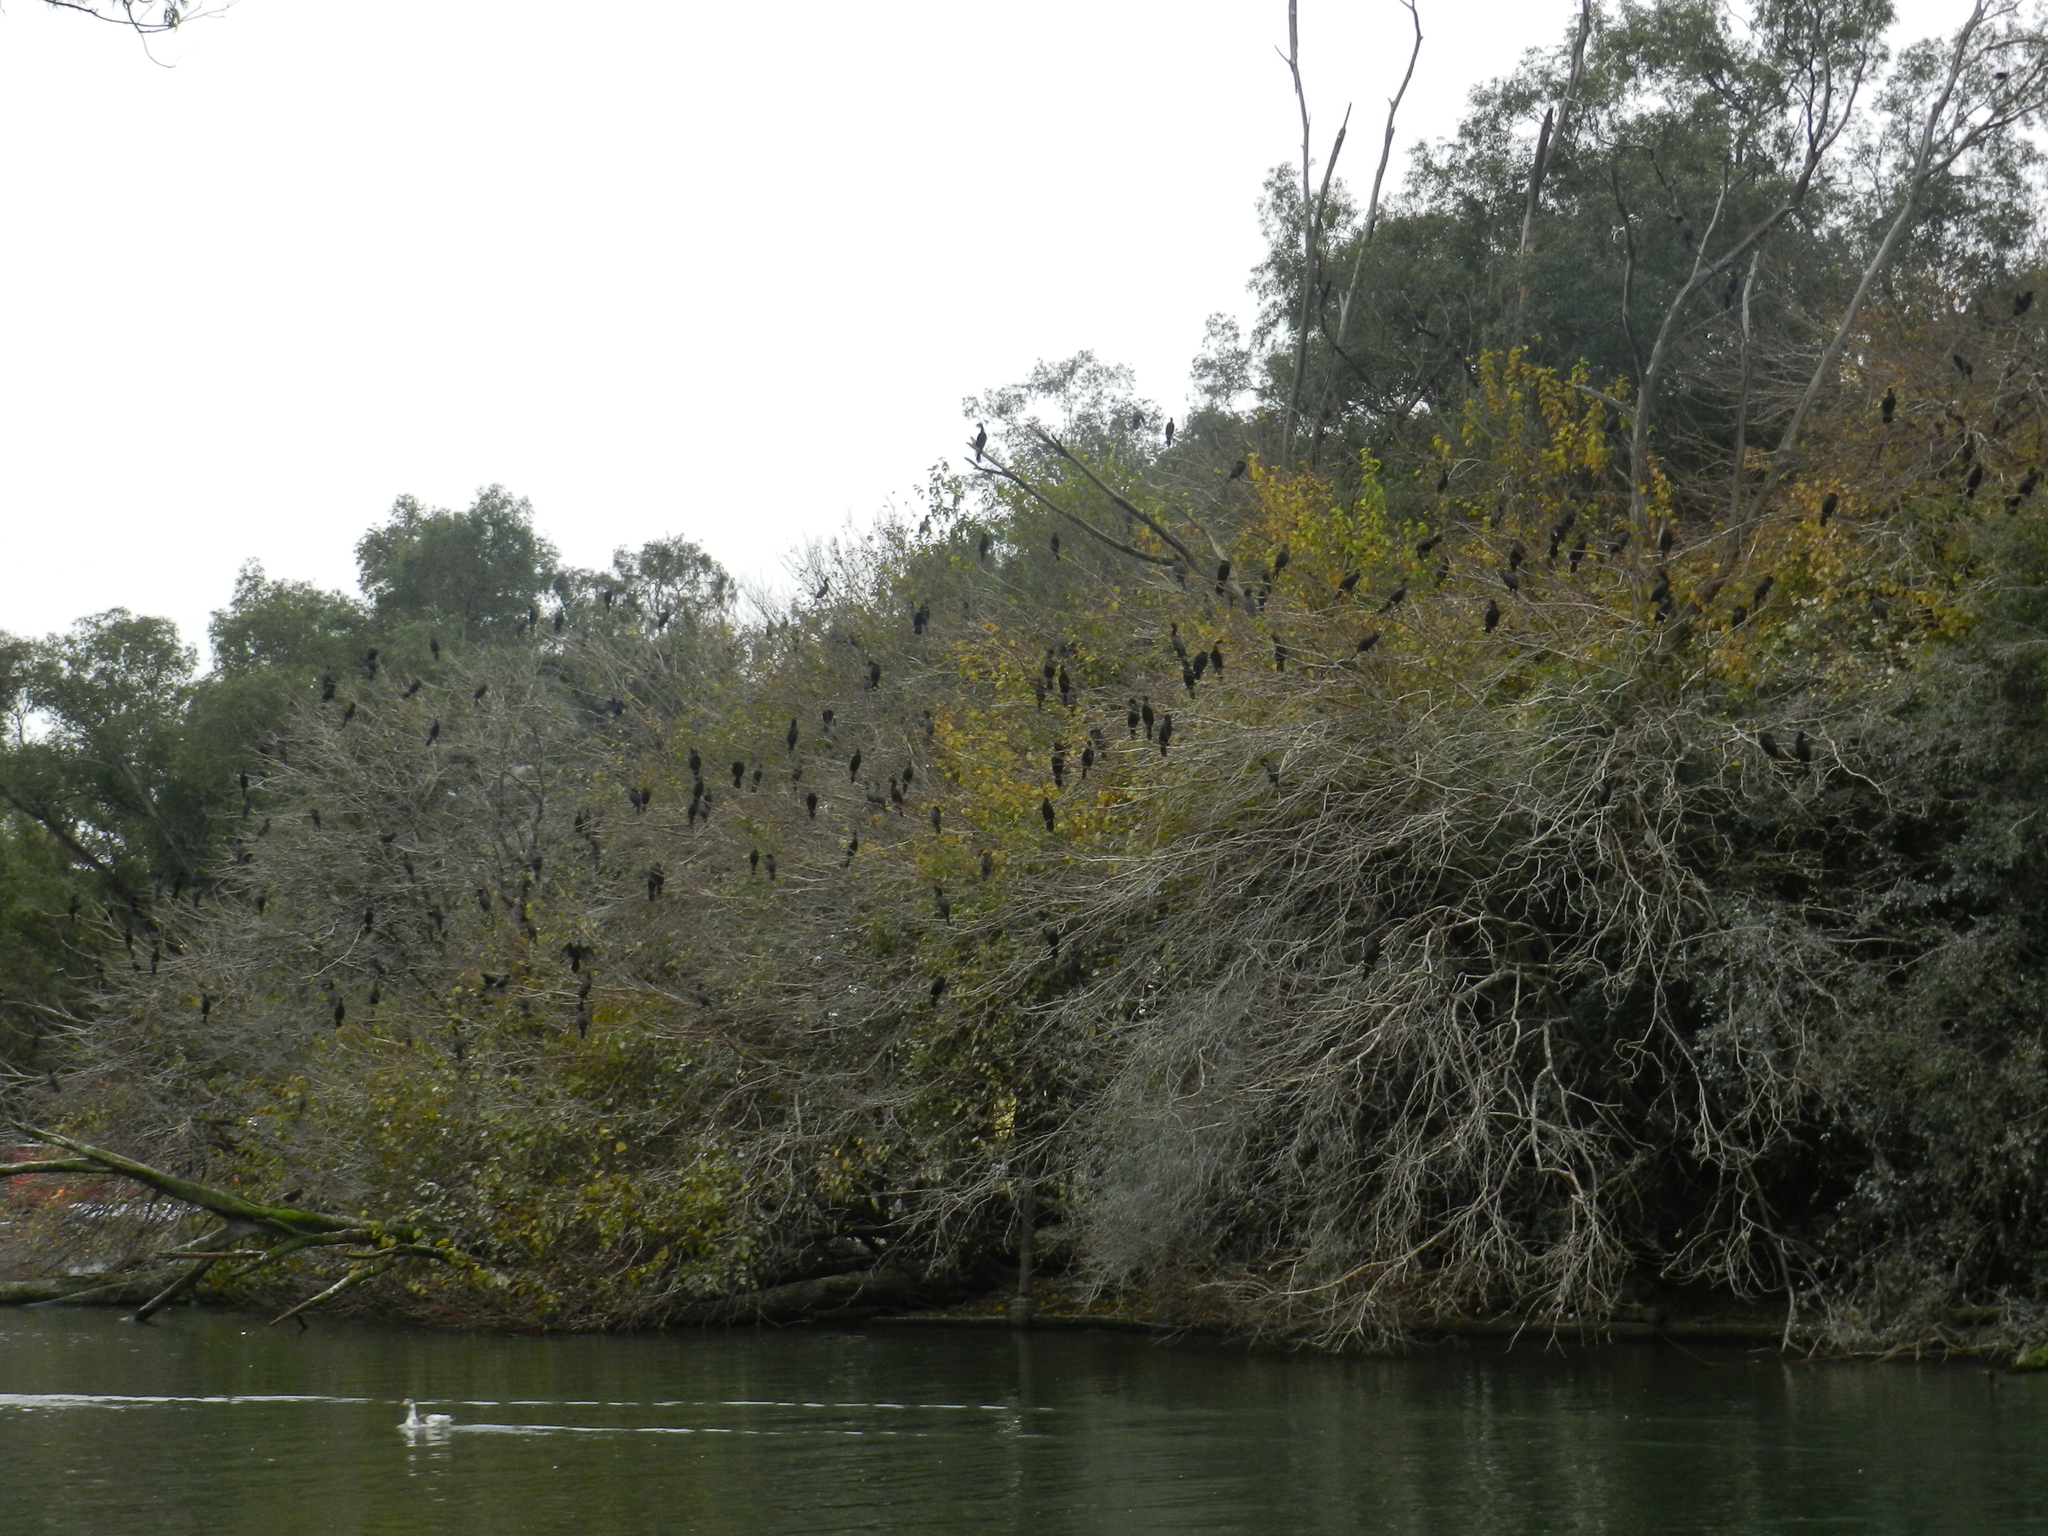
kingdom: Animalia
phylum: Chordata
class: Aves
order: Suliformes
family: Phalacrocoracidae
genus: Phalacrocorax
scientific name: Phalacrocorax brasilianus
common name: Neotropic cormorant
